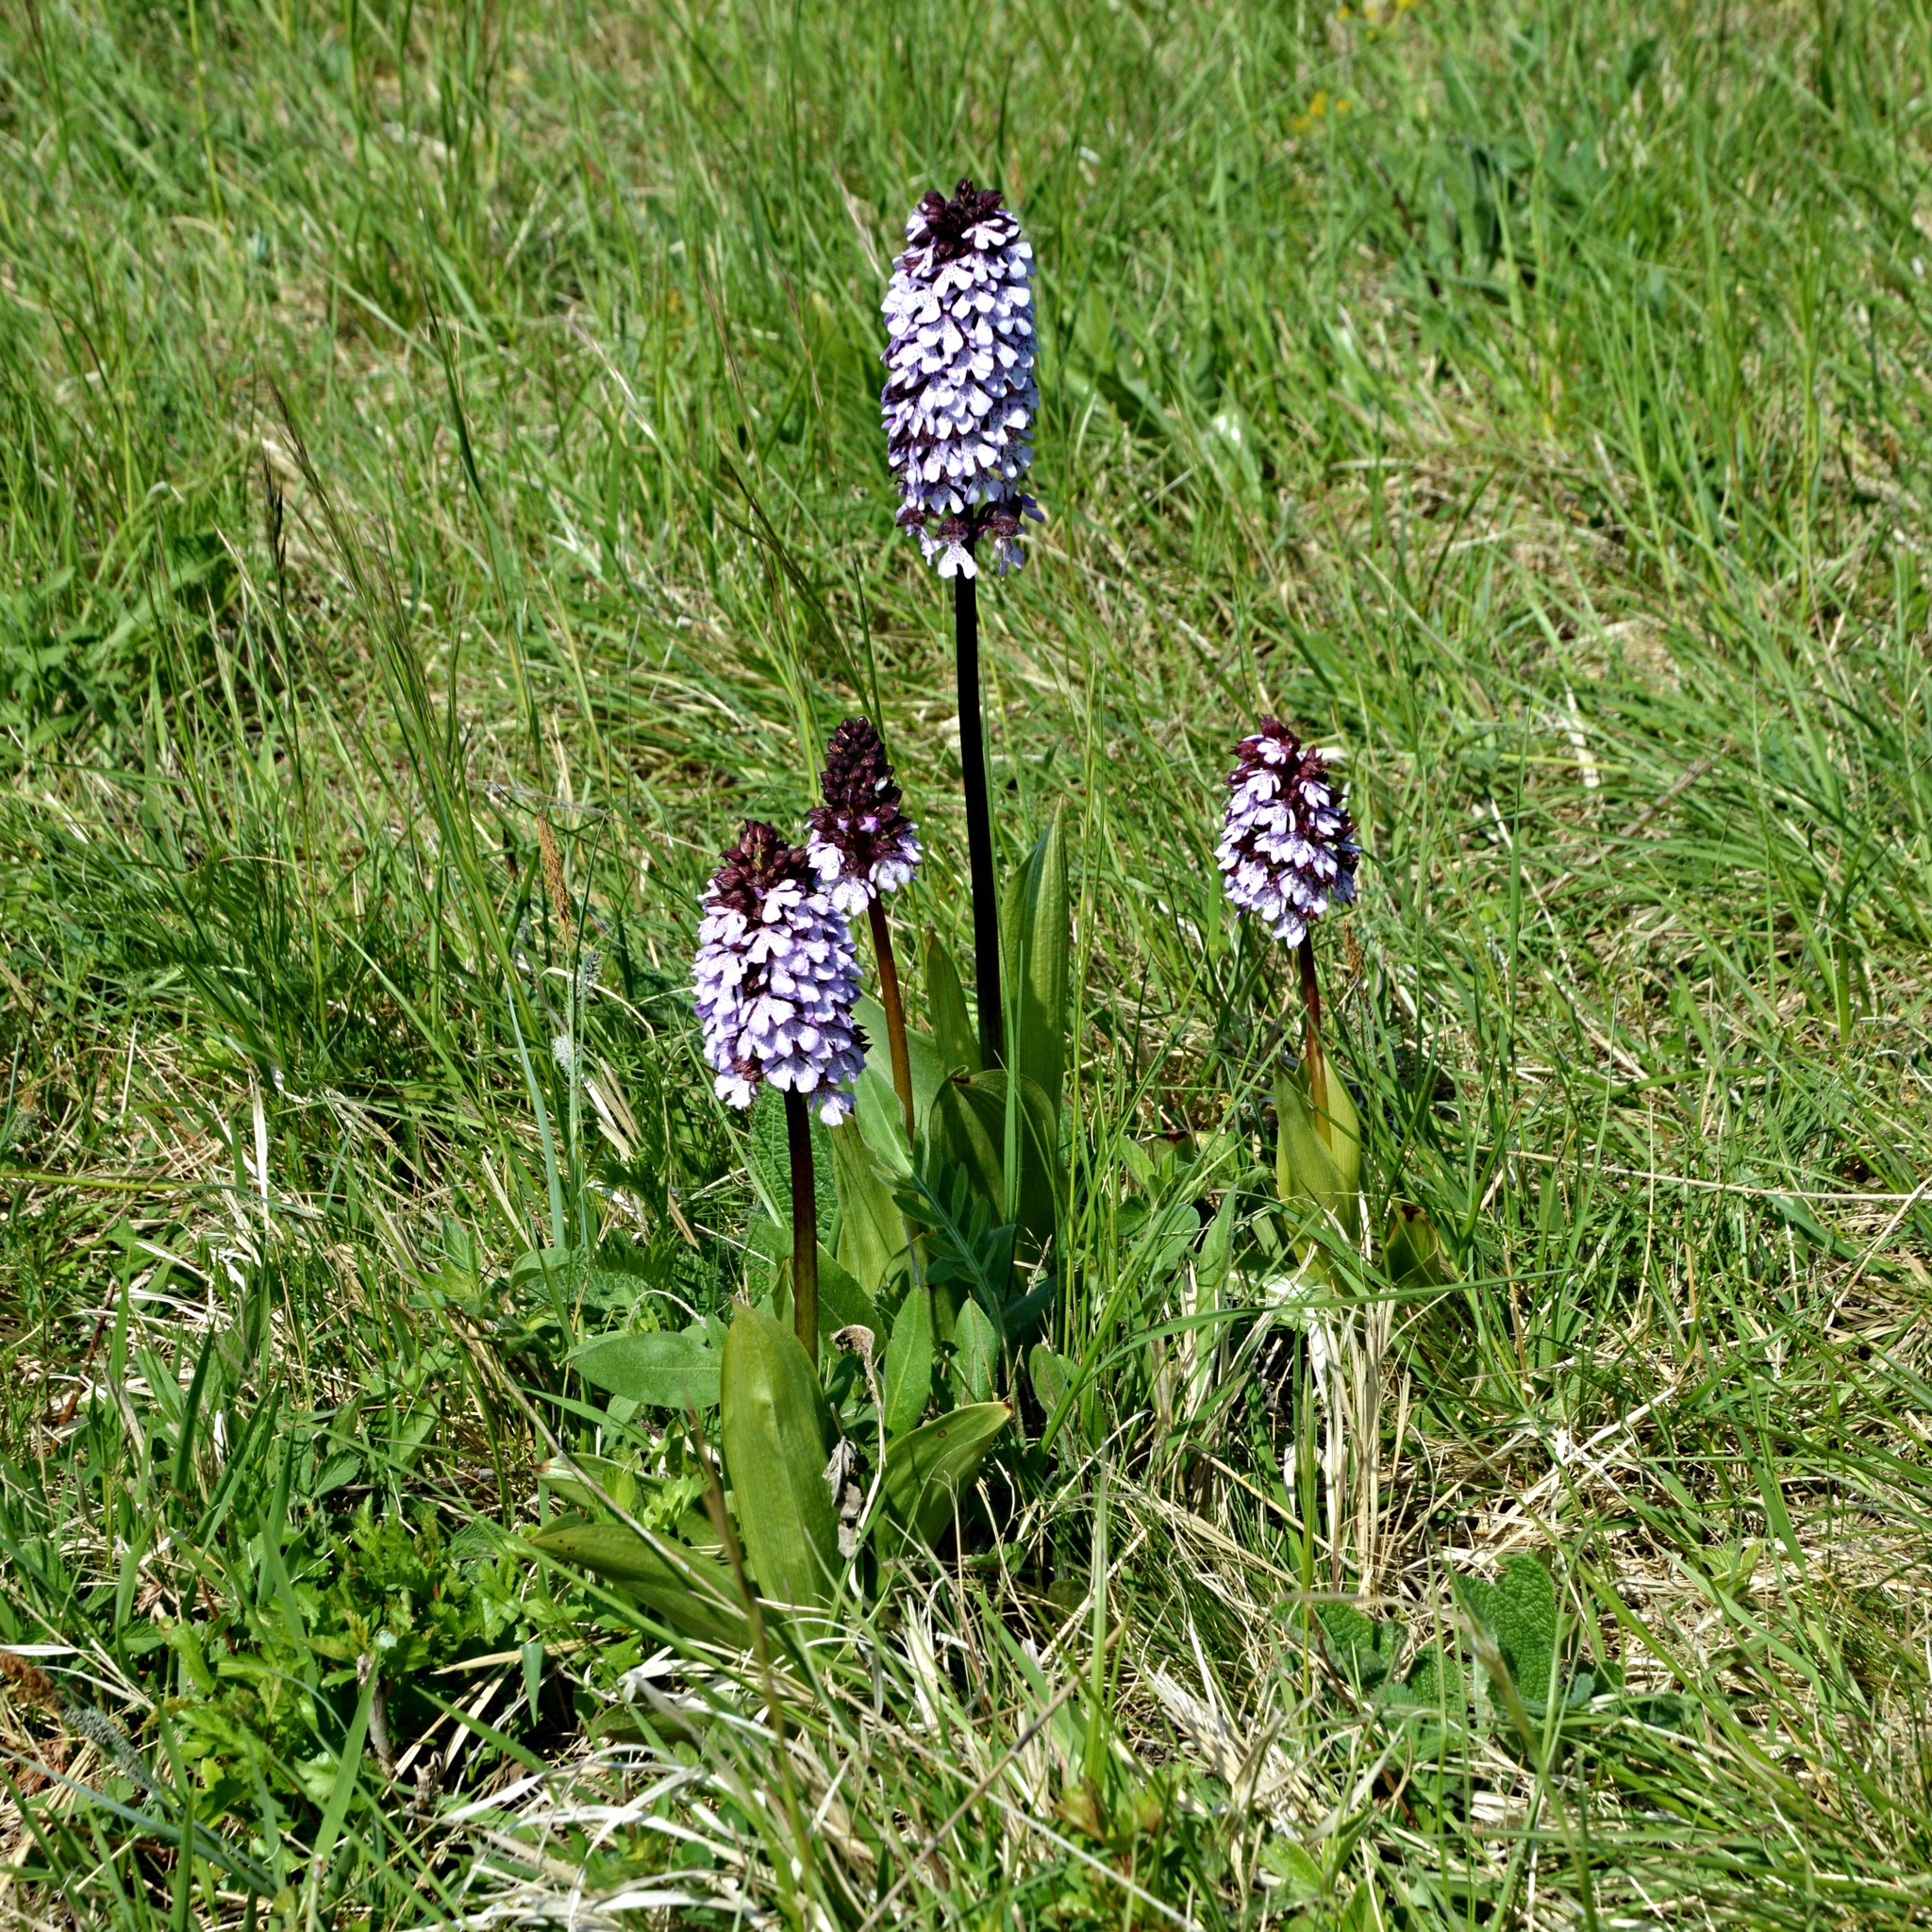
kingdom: Plantae
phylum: Tracheophyta
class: Liliopsida
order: Asparagales
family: Orchidaceae
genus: Orchis
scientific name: Orchis purpurea
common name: Lady orchid
